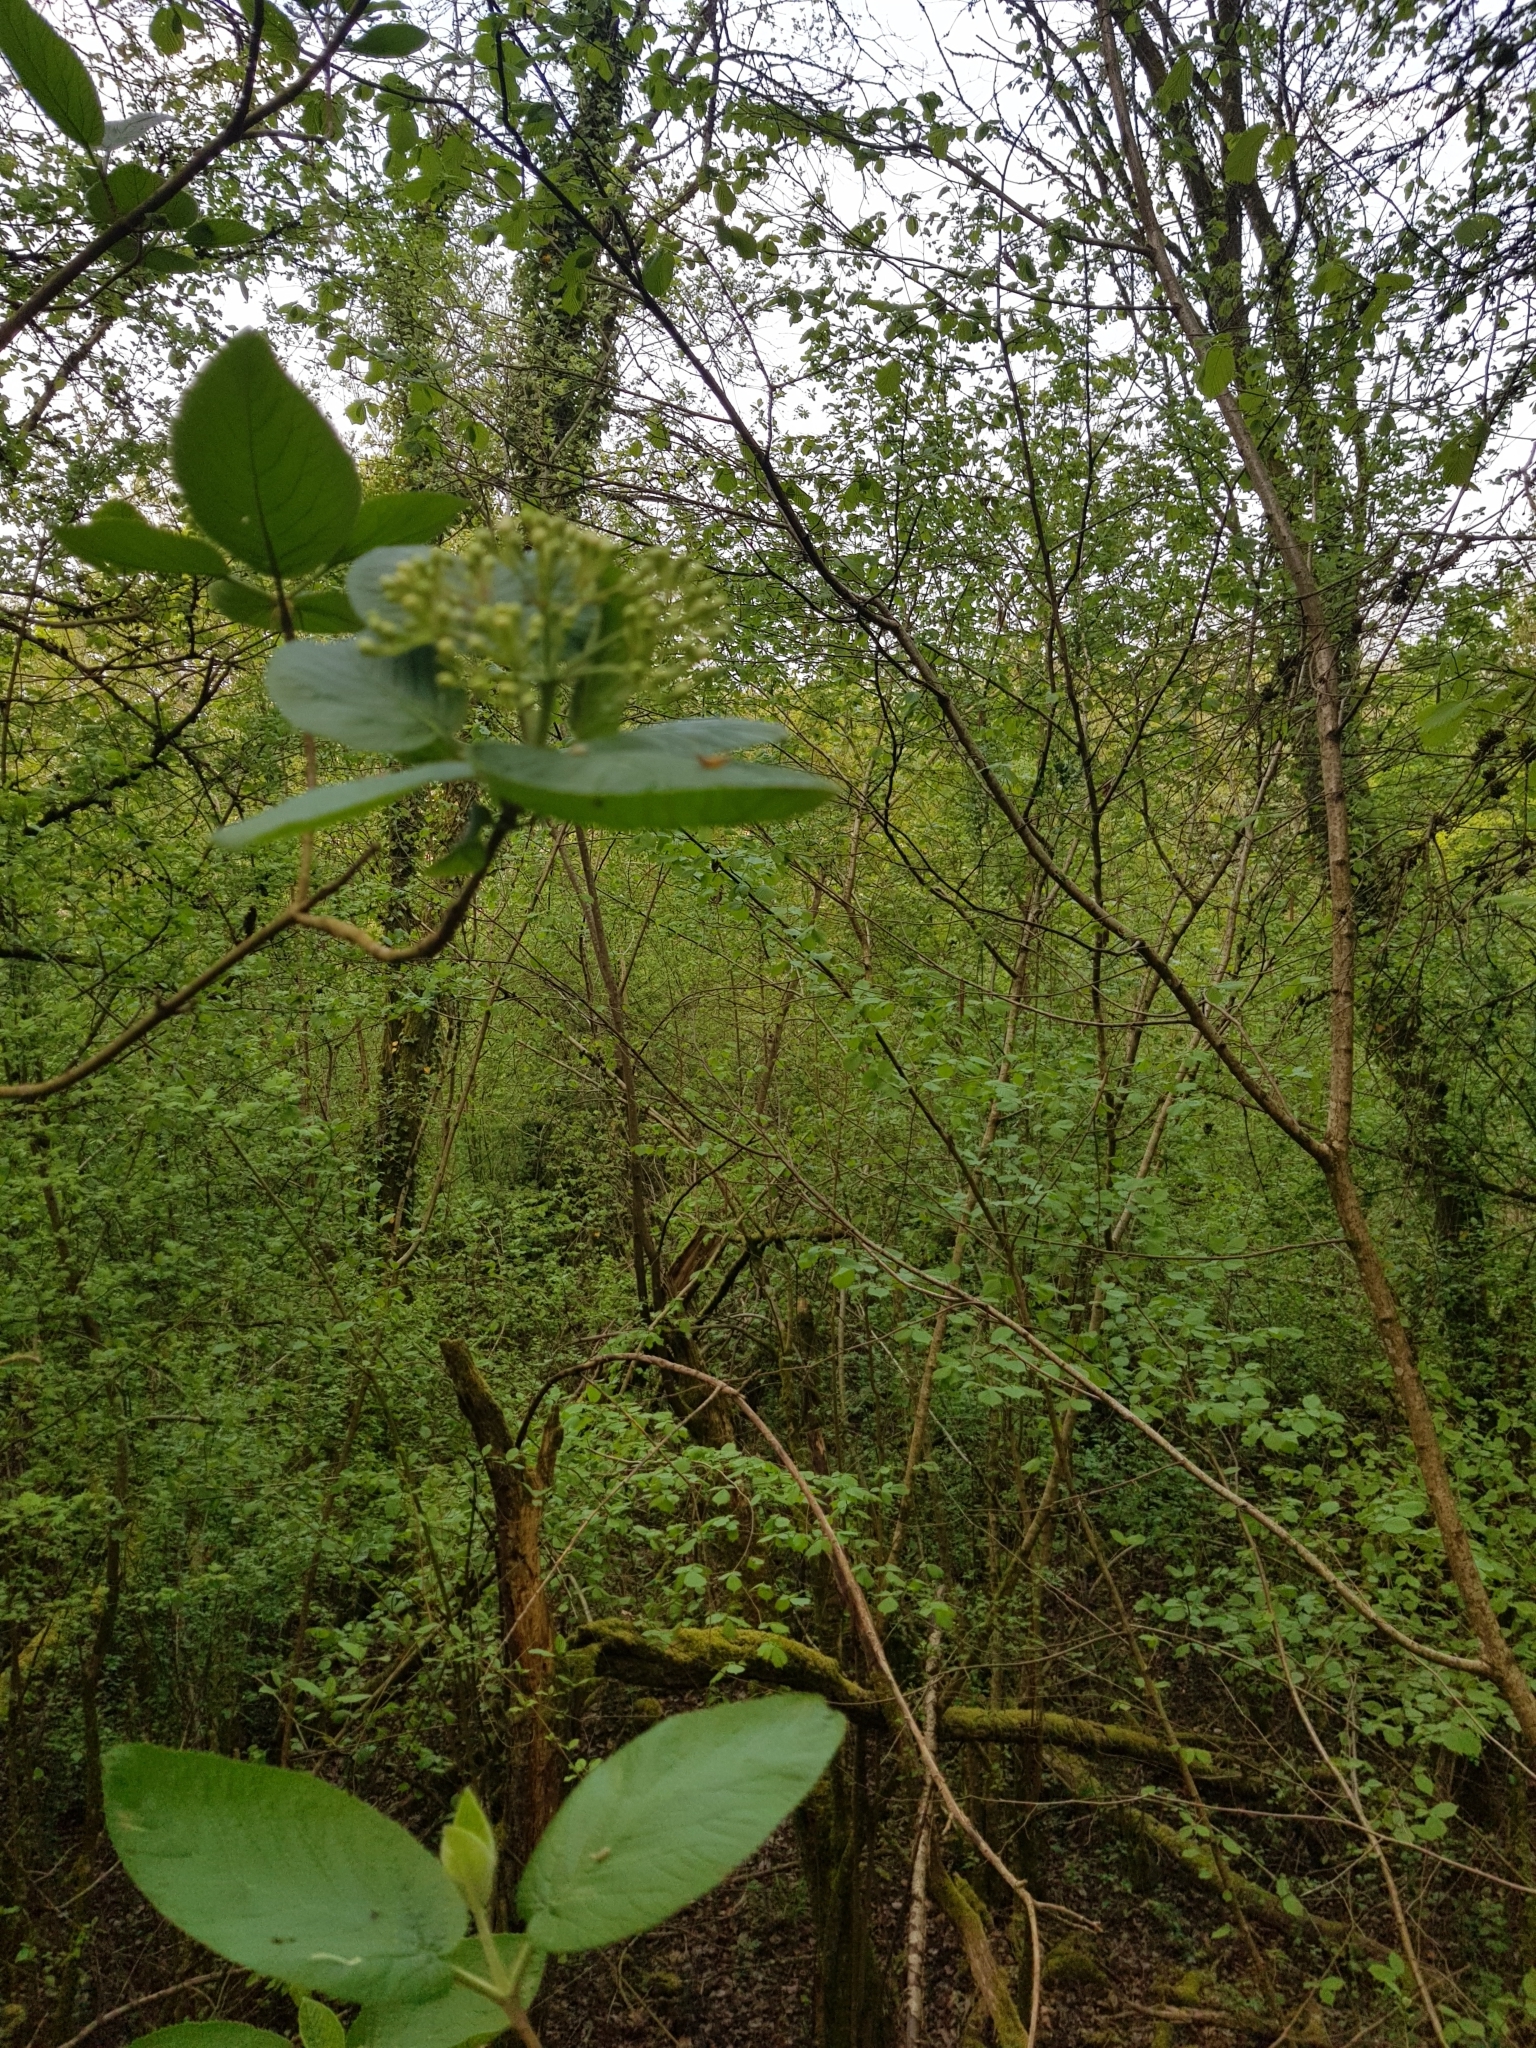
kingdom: Plantae
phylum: Tracheophyta
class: Magnoliopsida
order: Dipsacales
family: Viburnaceae
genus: Viburnum
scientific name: Viburnum lantana
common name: Wayfaring tree
